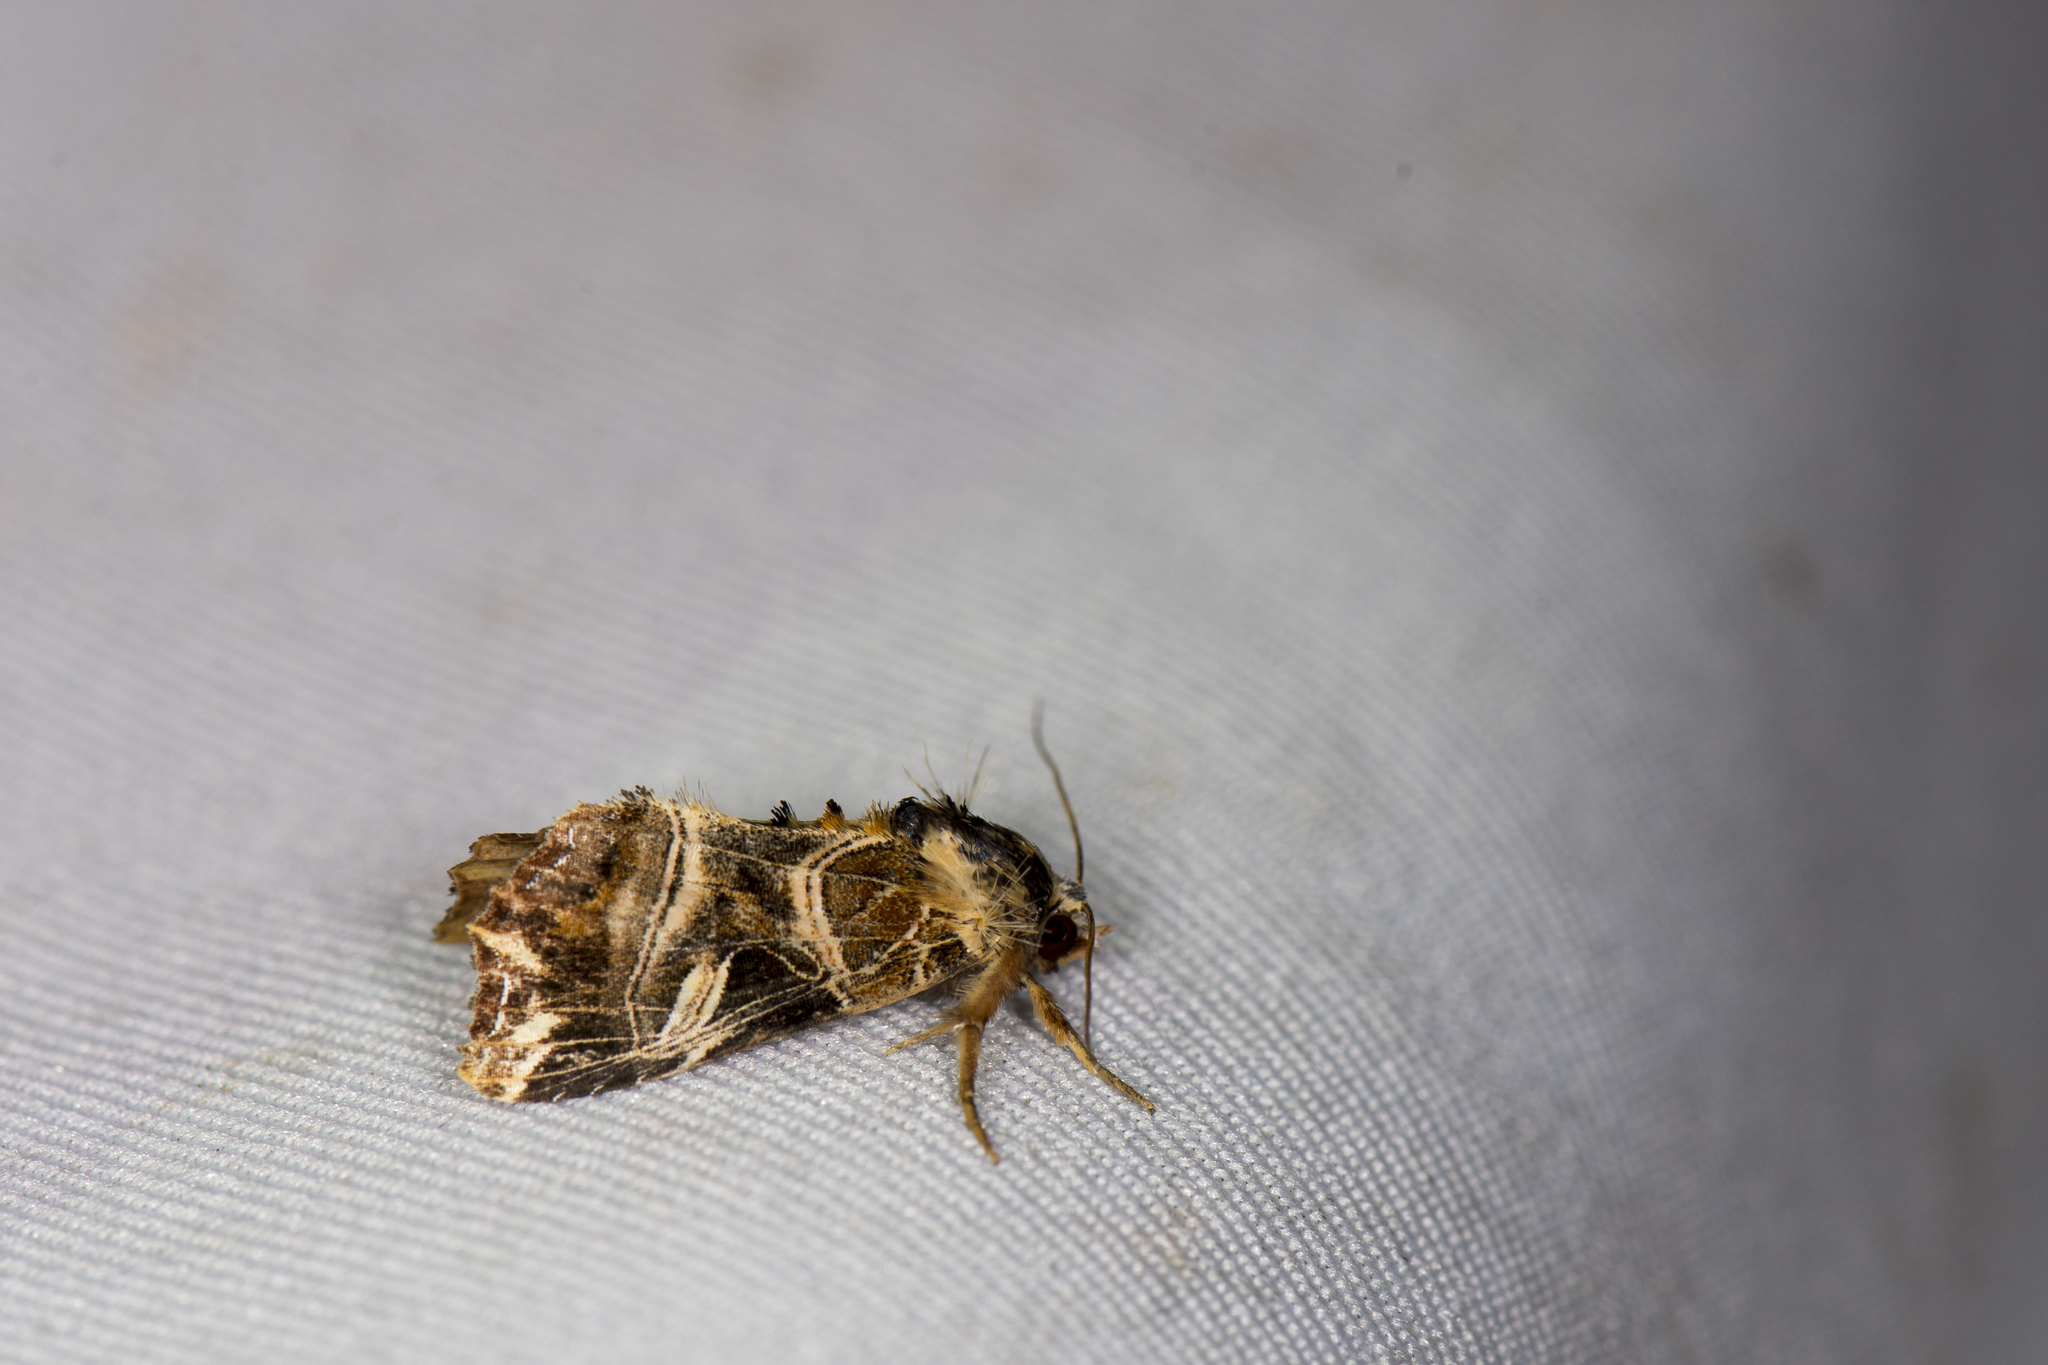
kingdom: Animalia
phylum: Arthropoda
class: Insecta
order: Lepidoptera
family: Noctuidae
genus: Callopistria
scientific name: Callopistria repleta
